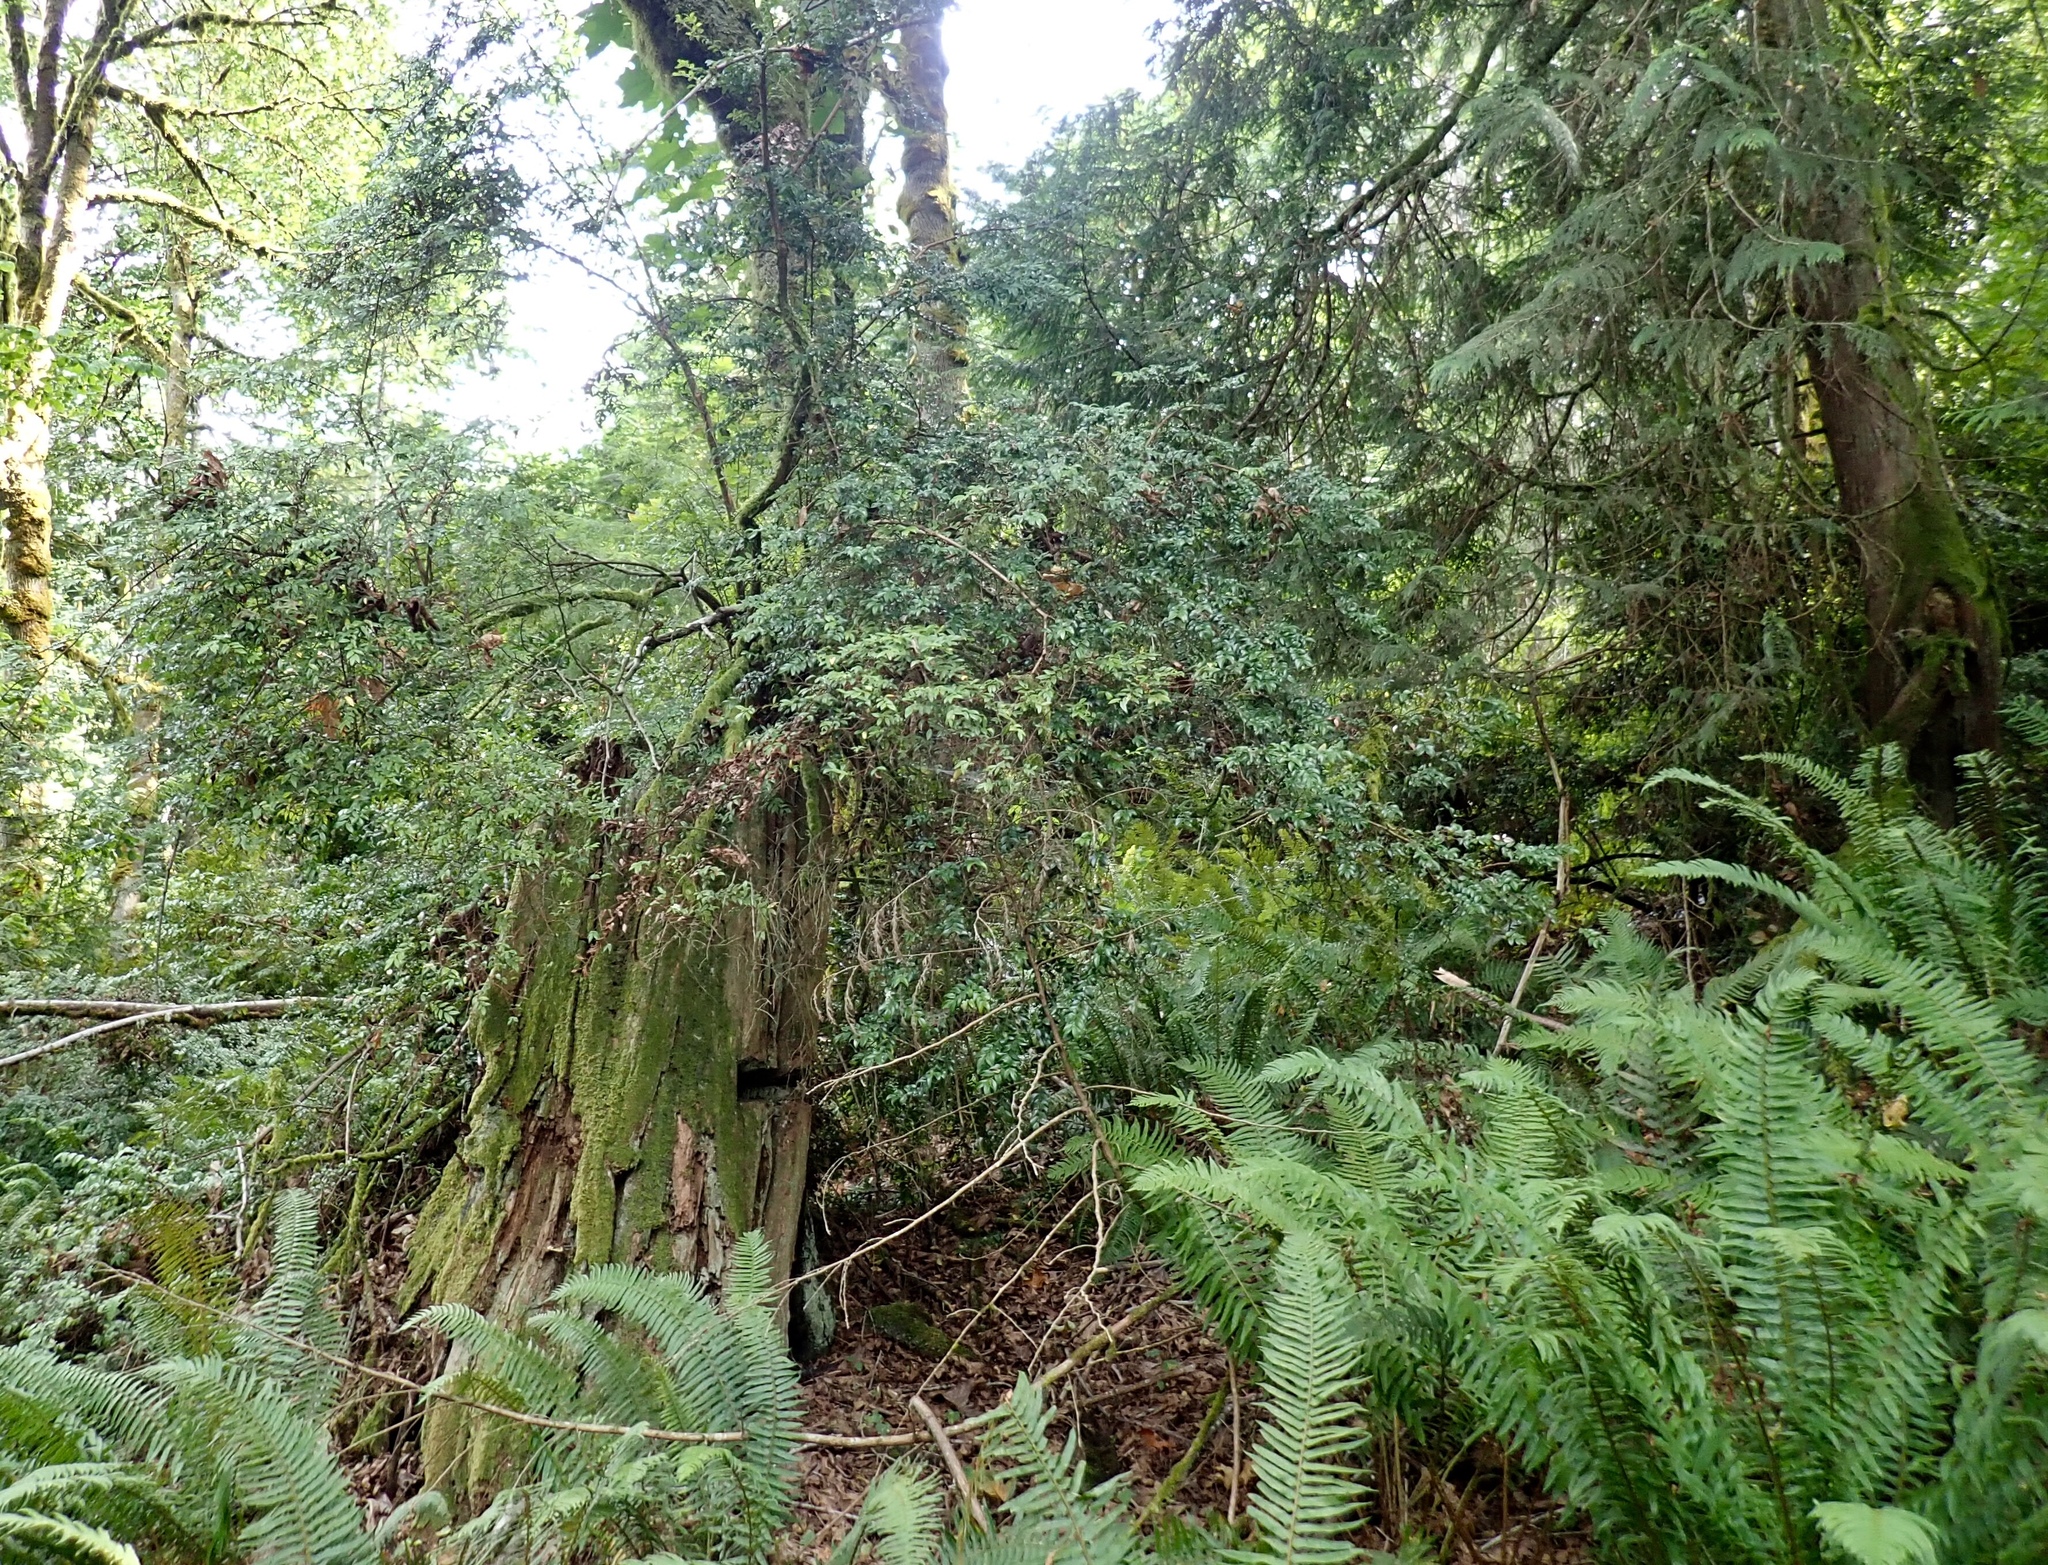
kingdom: Plantae
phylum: Tracheophyta
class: Magnoliopsida
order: Ericales
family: Ericaceae
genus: Vaccinium
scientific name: Vaccinium ovatum
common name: California-huckleberry
